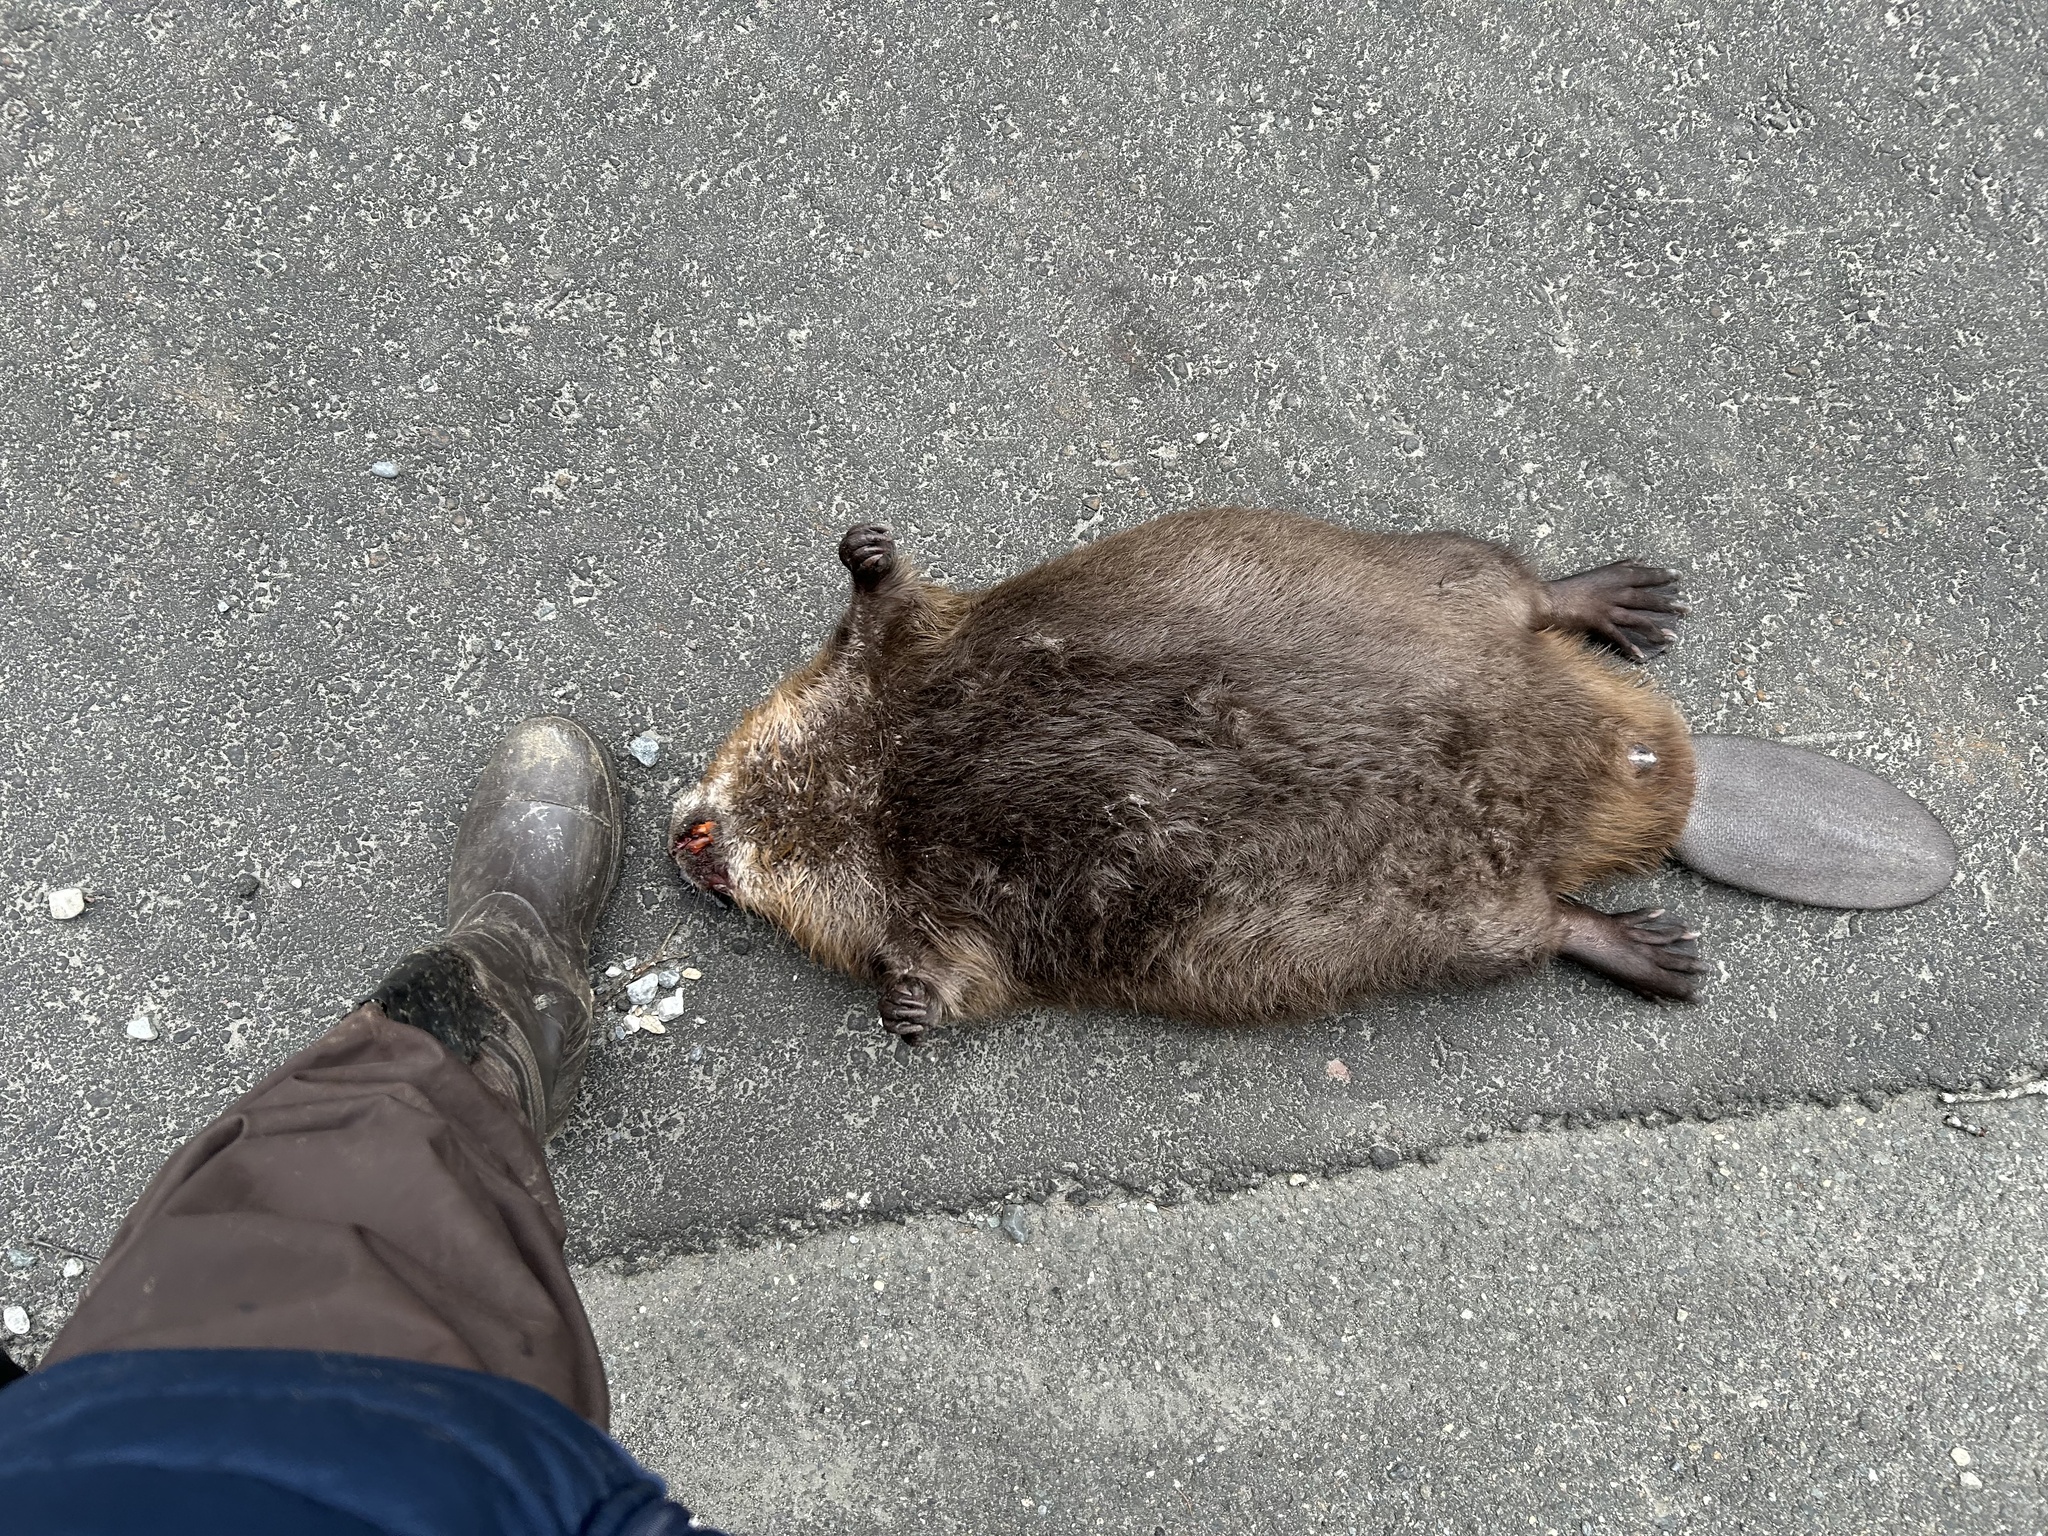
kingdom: Animalia
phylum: Chordata
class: Mammalia
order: Rodentia
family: Castoridae
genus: Castor
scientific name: Castor canadensis
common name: American beaver
